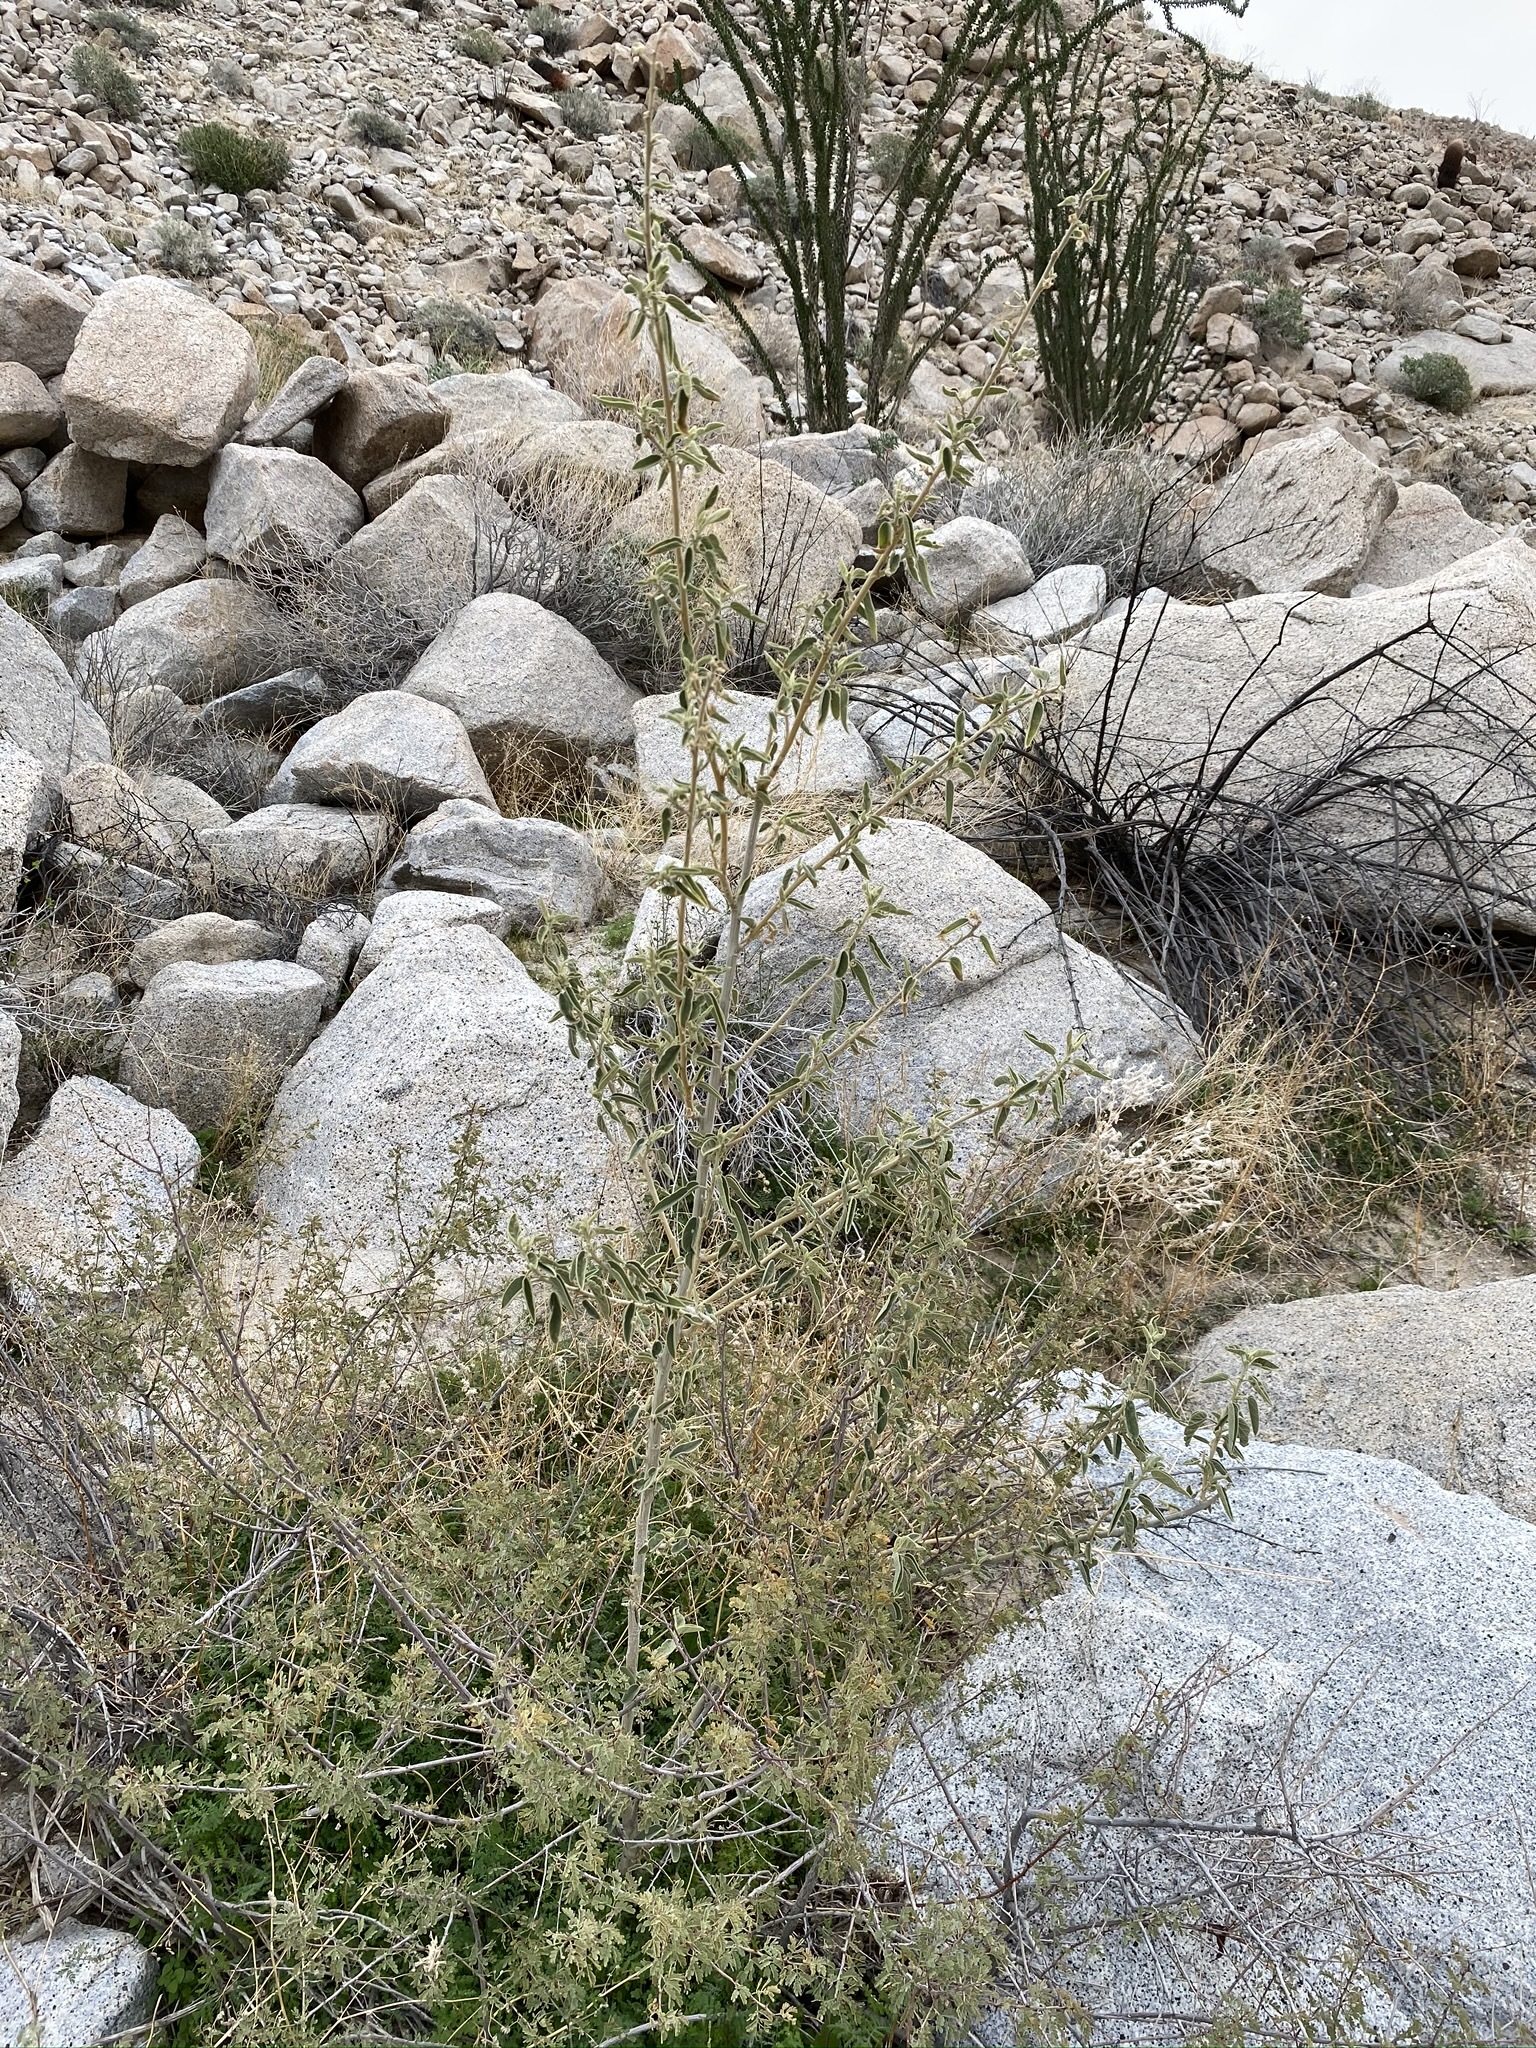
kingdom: Plantae
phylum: Tracheophyta
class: Magnoliopsida
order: Malvales
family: Malvaceae
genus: Horsfordia
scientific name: Horsfordia newberryi
